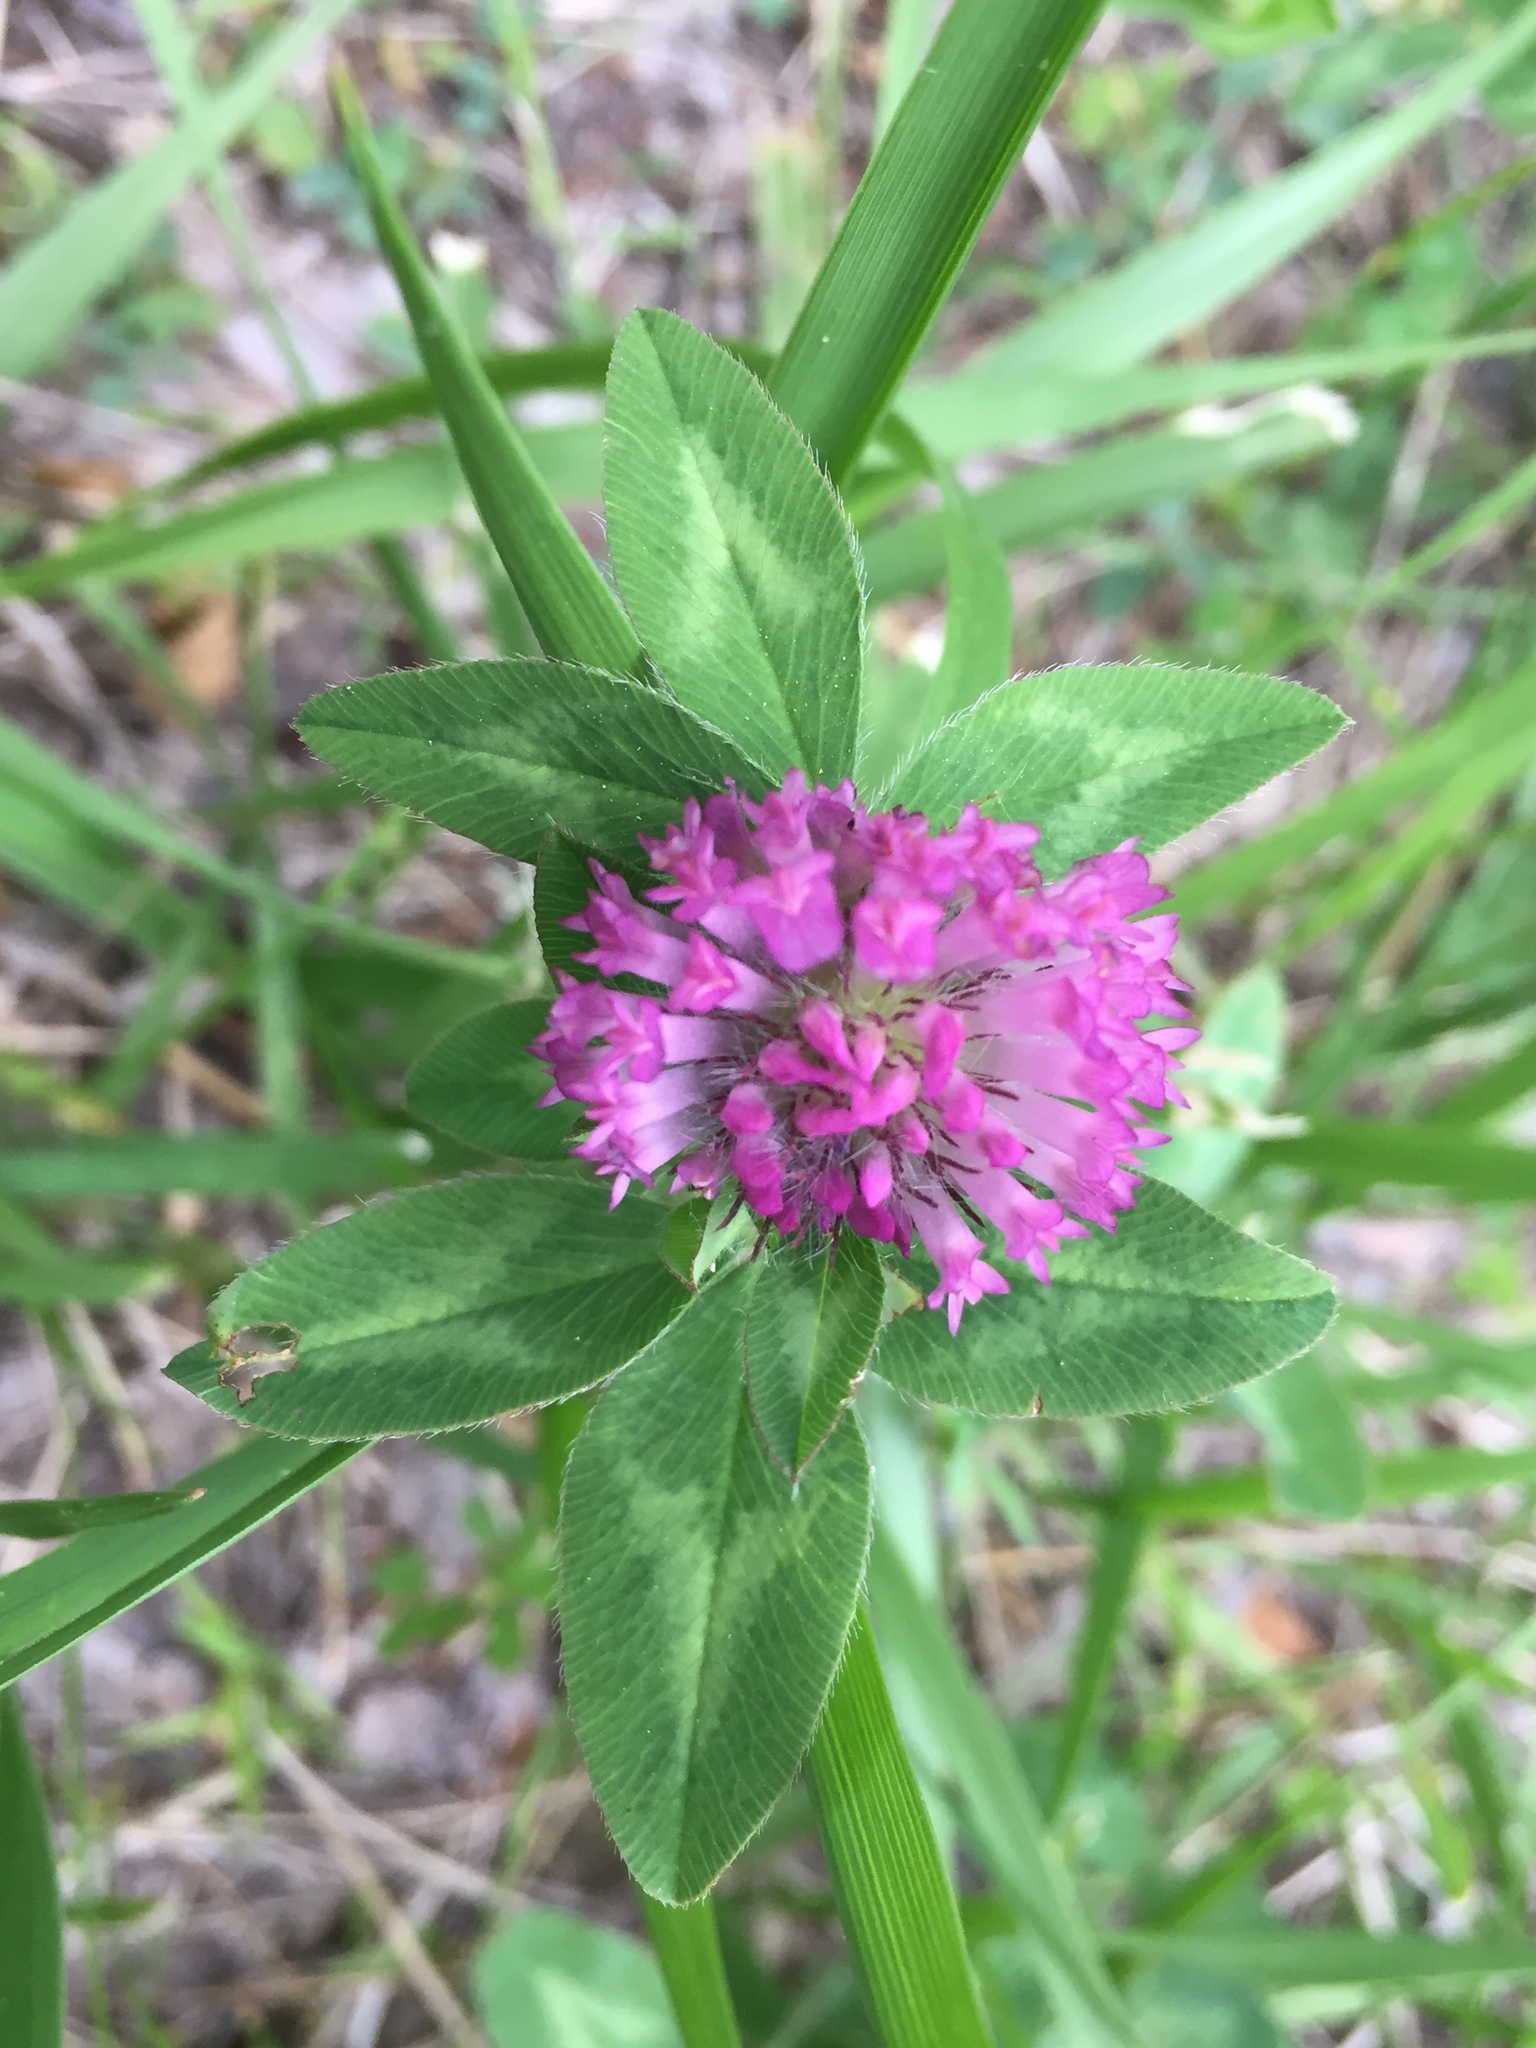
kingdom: Plantae
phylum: Tracheophyta
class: Magnoliopsida
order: Fabales
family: Fabaceae
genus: Trifolium
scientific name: Trifolium pratense
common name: Red clover
